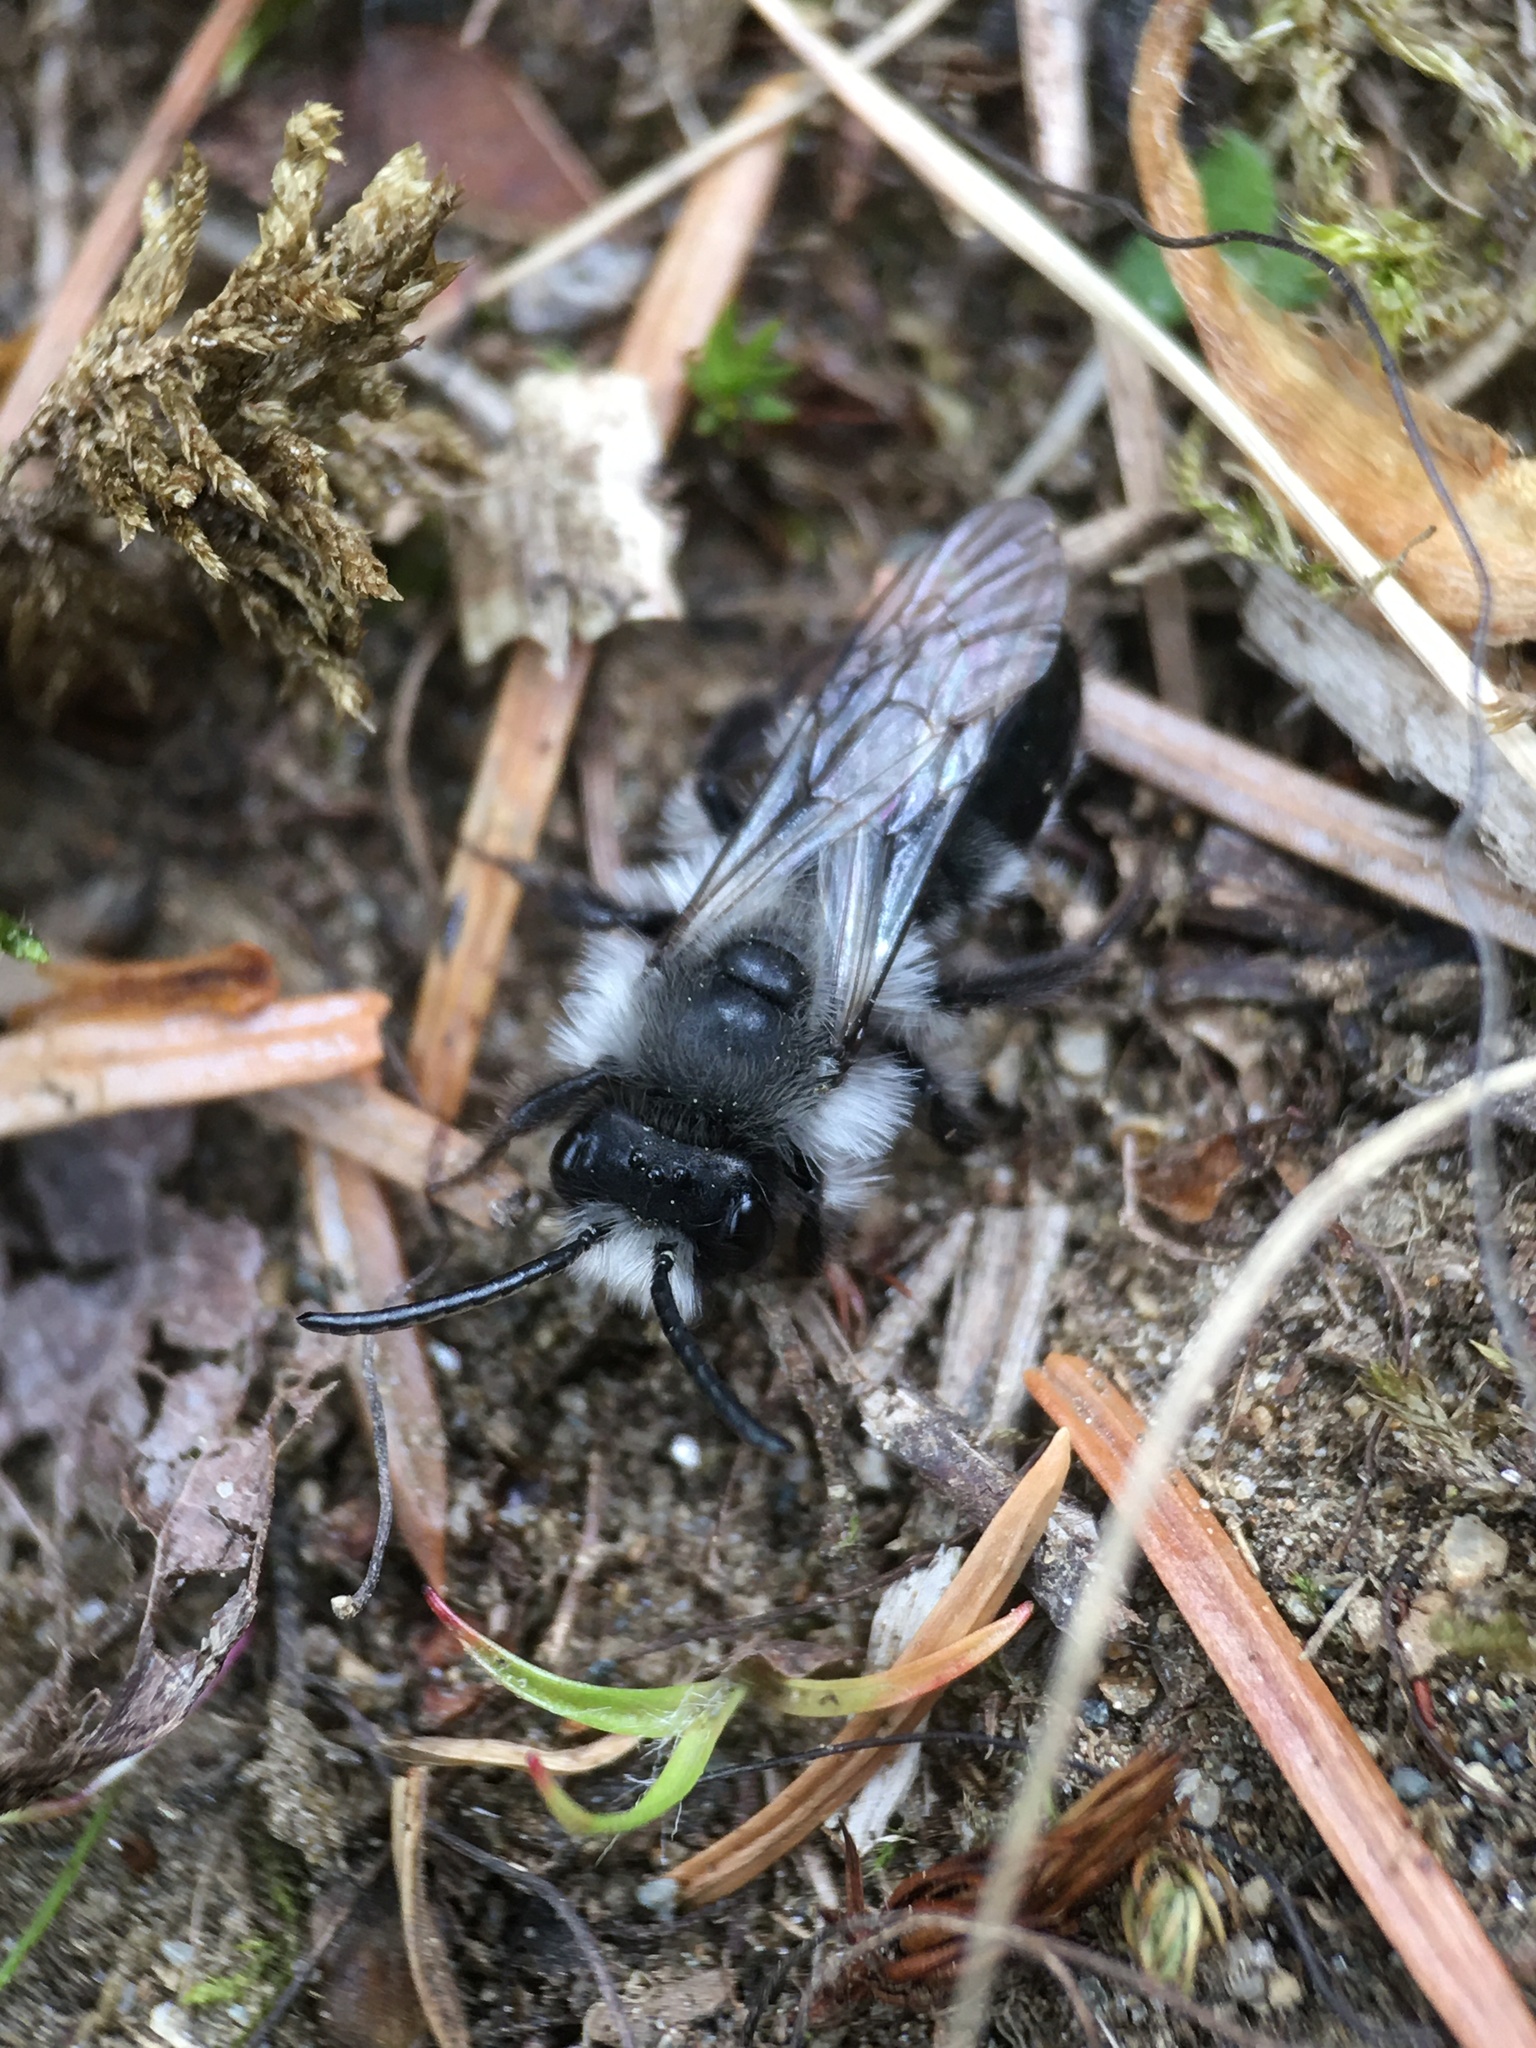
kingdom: Animalia
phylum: Arthropoda
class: Insecta
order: Hymenoptera
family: Andrenidae
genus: Andrena
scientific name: Andrena cineraria
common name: Ashy mining bee
